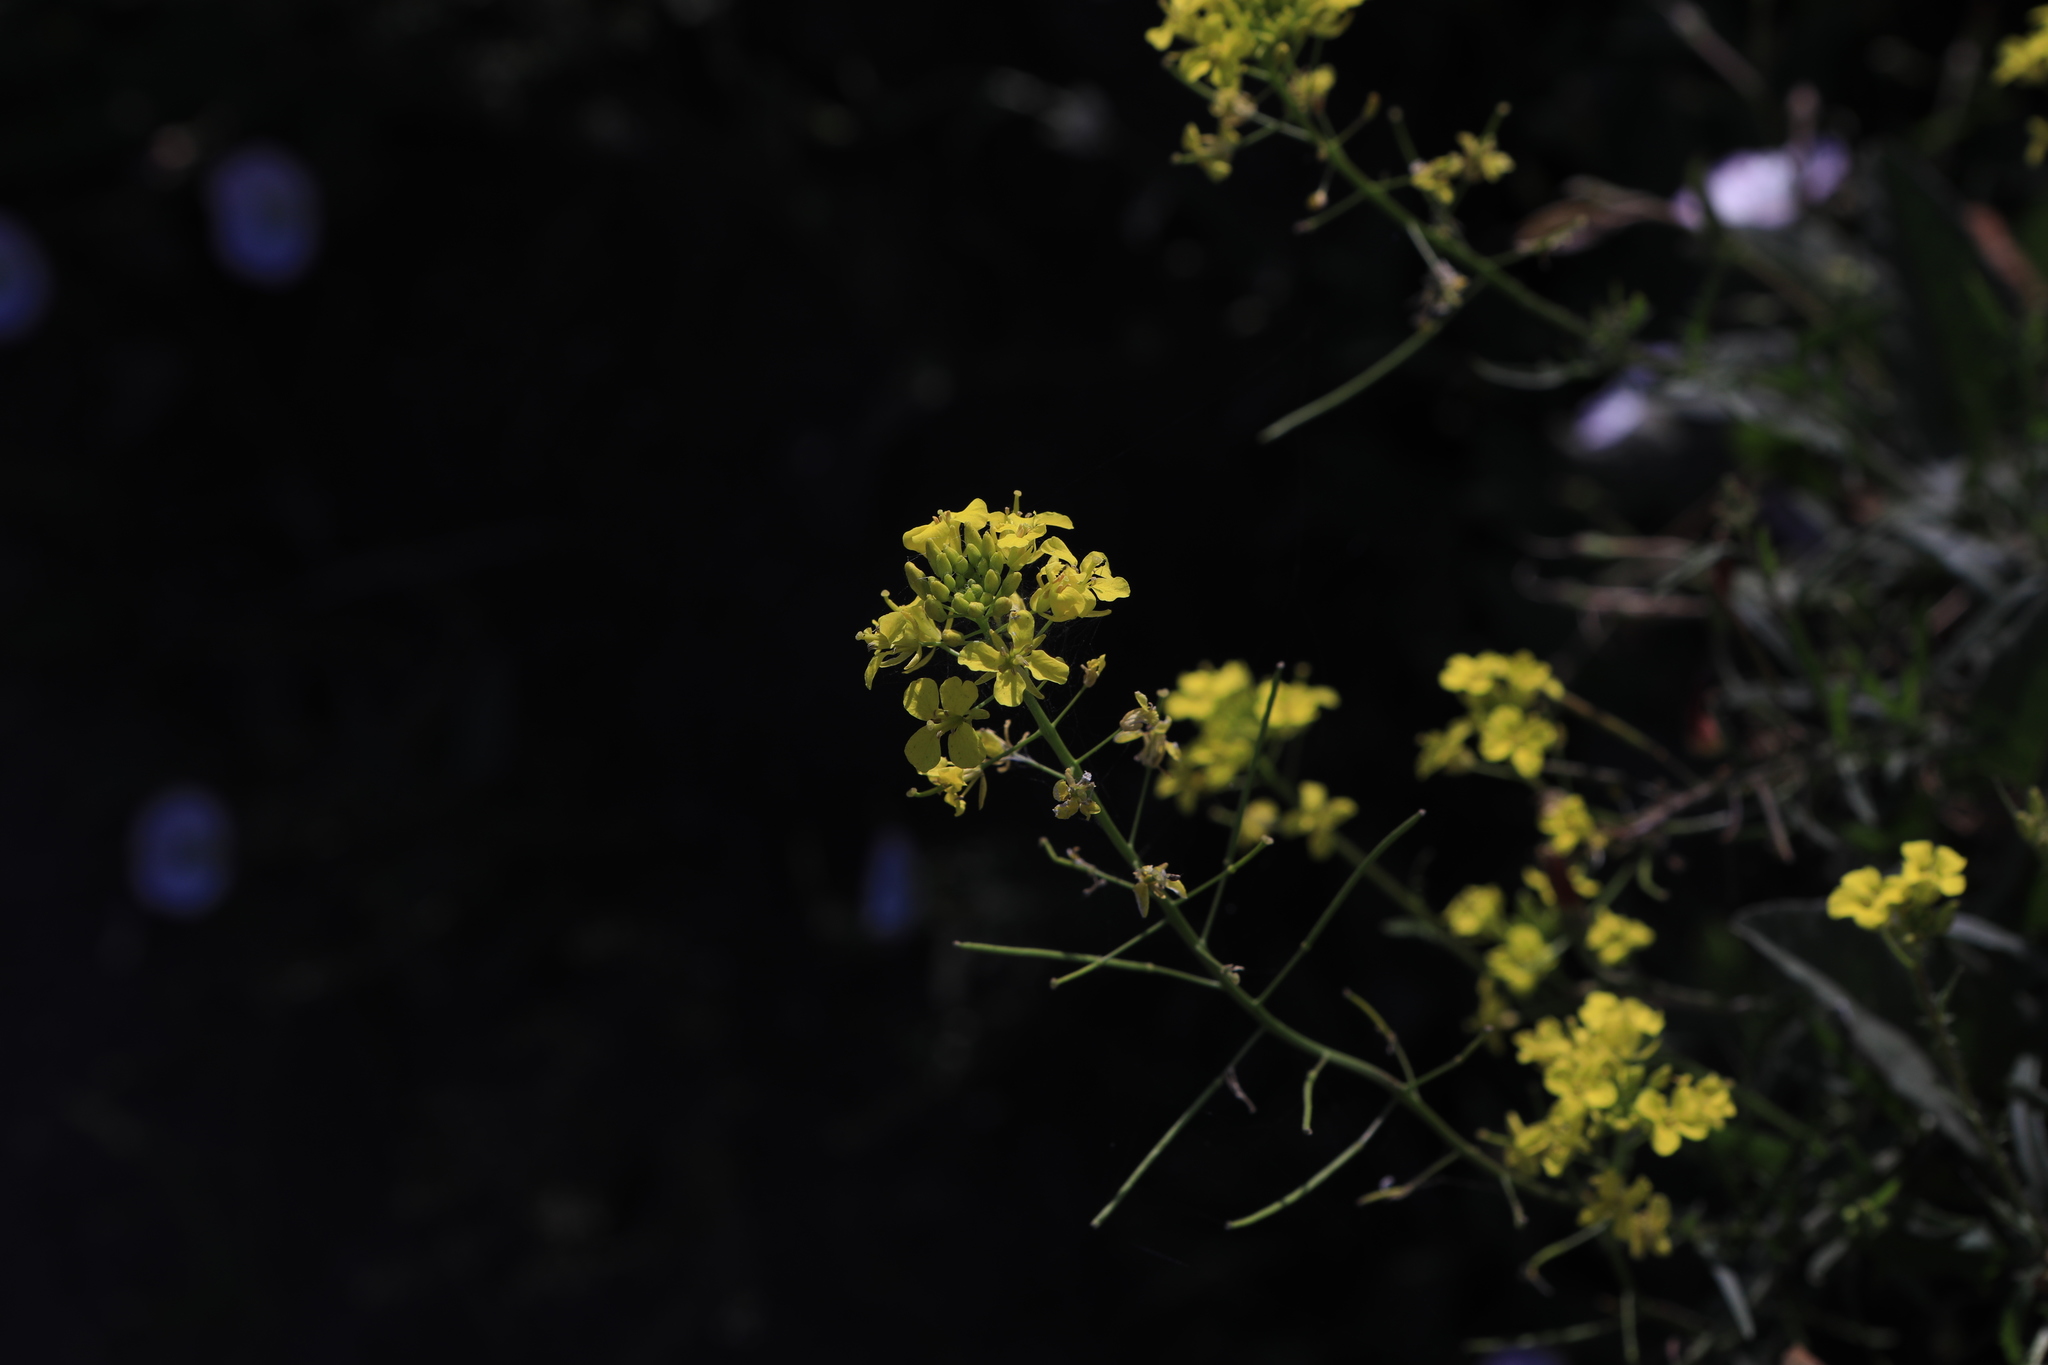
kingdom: Plantae
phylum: Tracheophyta
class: Magnoliopsida
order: Brassicales
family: Brassicaceae
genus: Sisymbrium
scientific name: Sisymbrium loeselii
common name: False london-rocket
